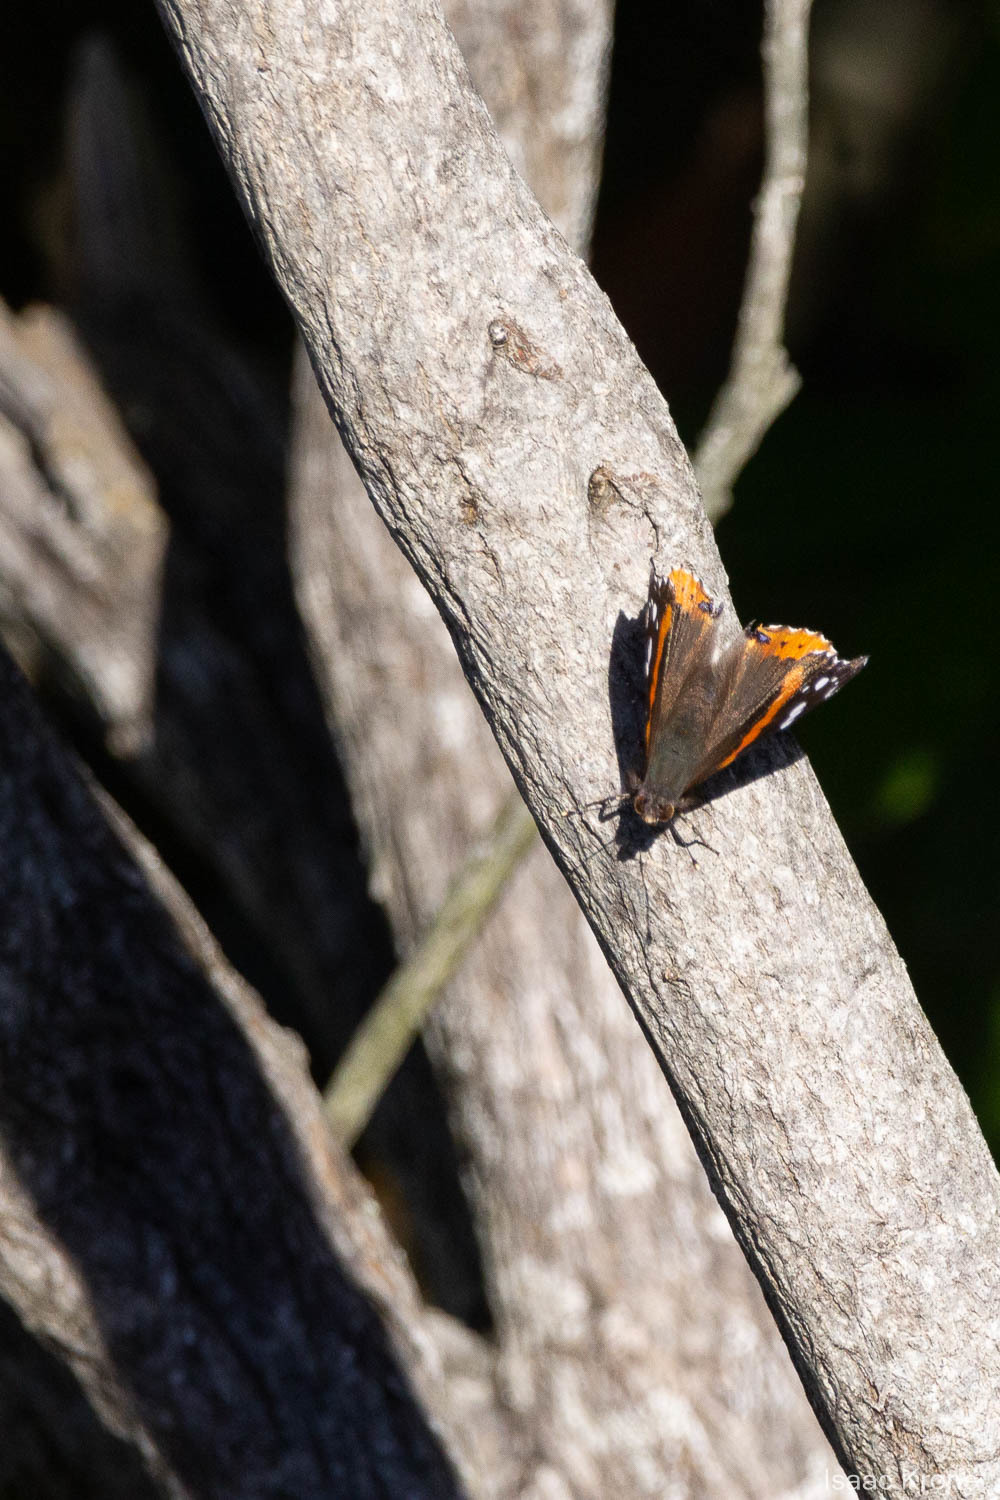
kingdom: Animalia
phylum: Arthropoda
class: Insecta
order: Lepidoptera
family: Nymphalidae
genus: Vanessa
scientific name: Vanessa atalanta
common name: Red admiral
